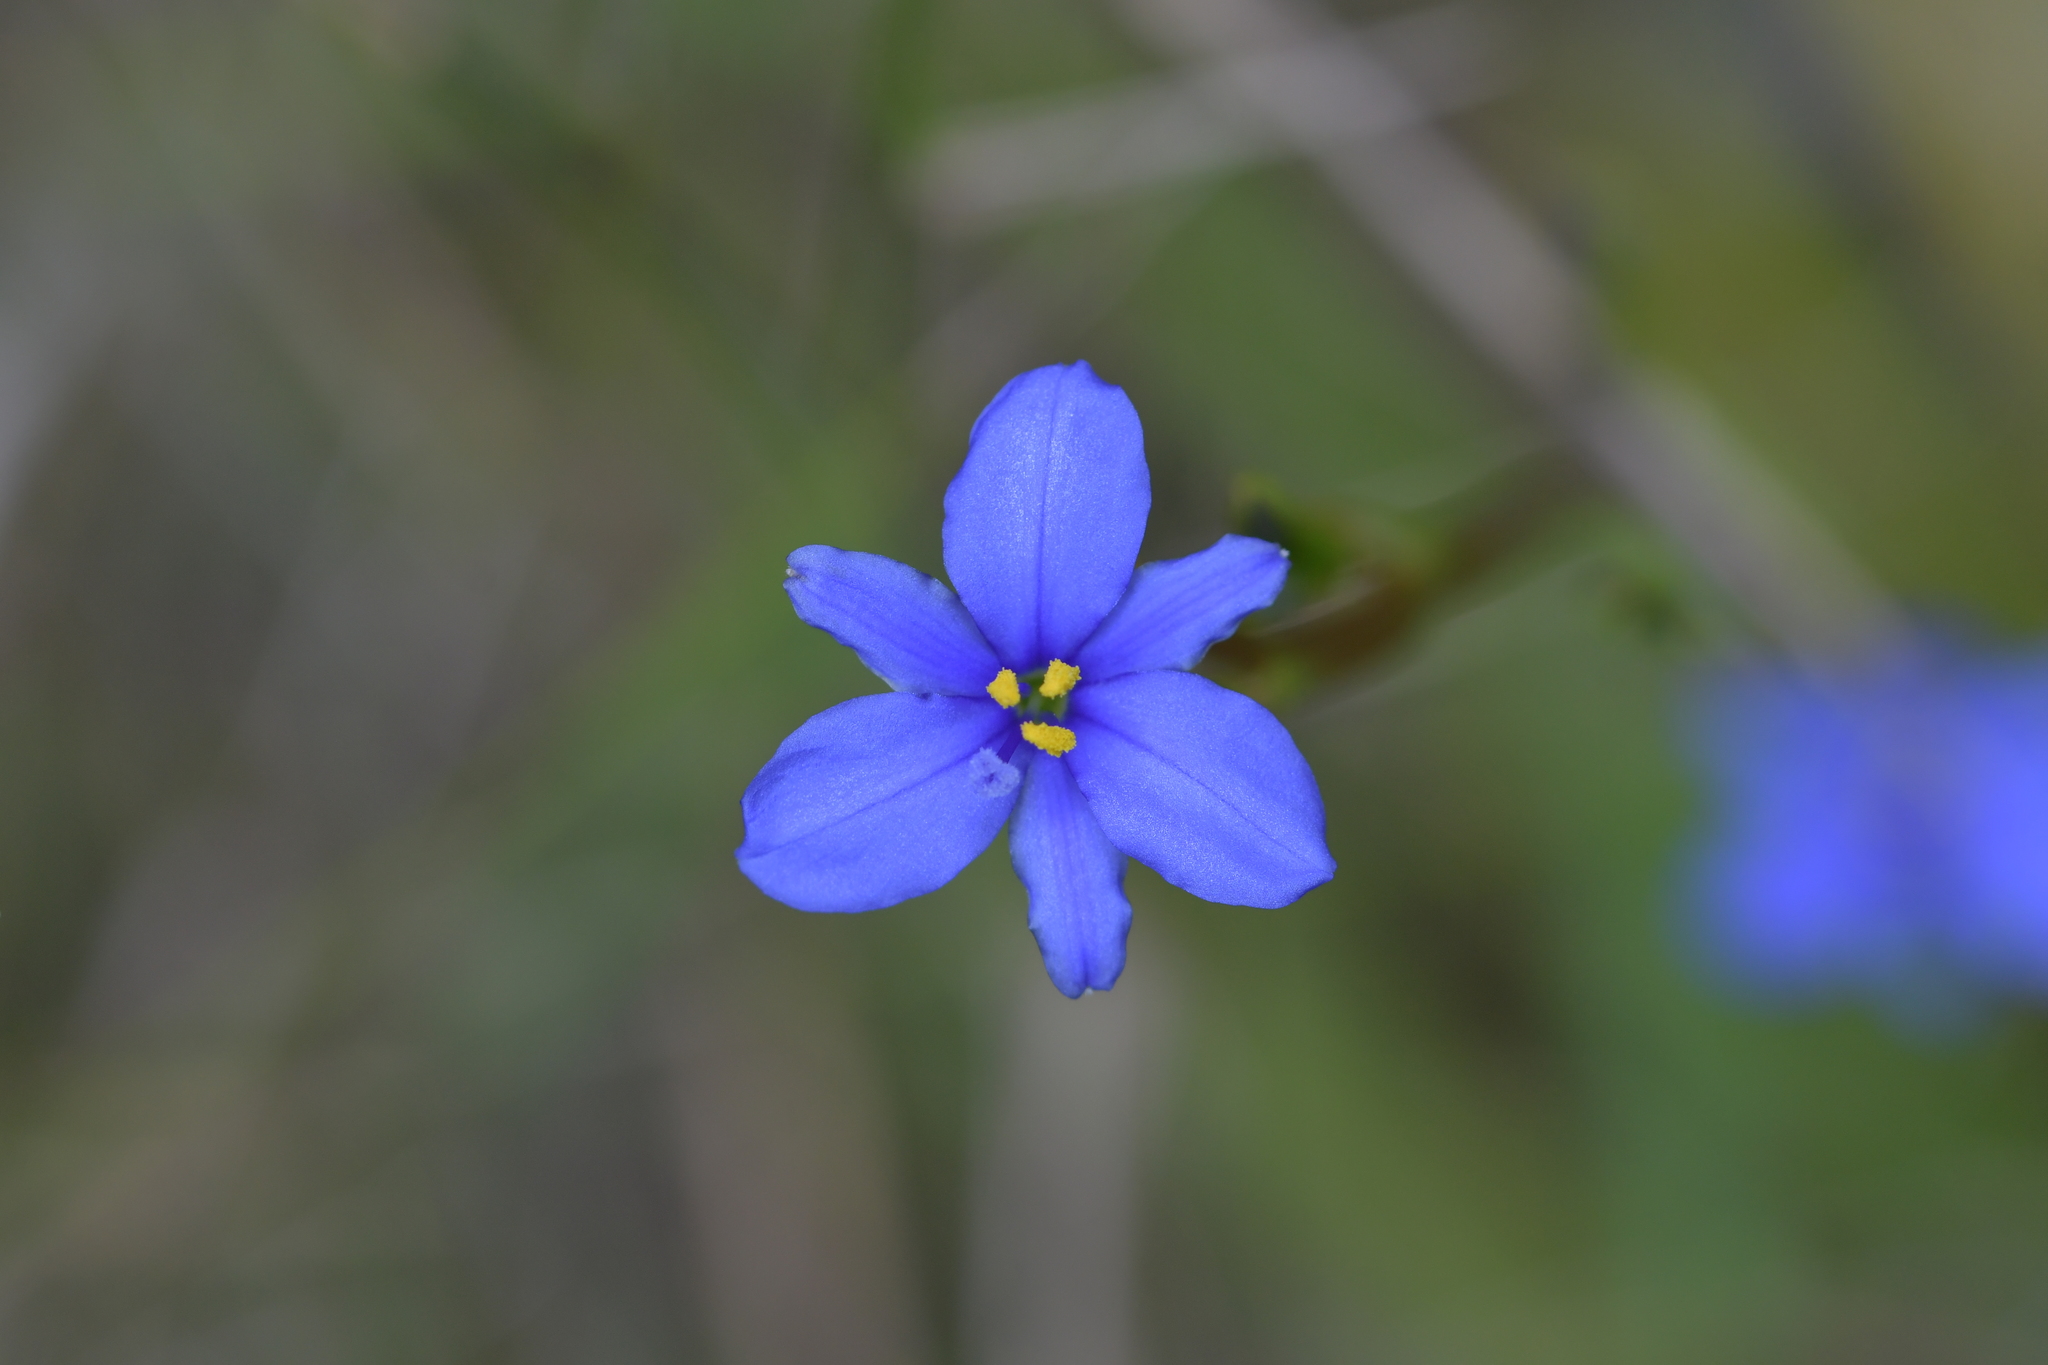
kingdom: Plantae
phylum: Tracheophyta
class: Liliopsida
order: Asparagales
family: Iridaceae
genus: Aristea
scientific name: Aristea ecklonii
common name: Blue corn-lily
